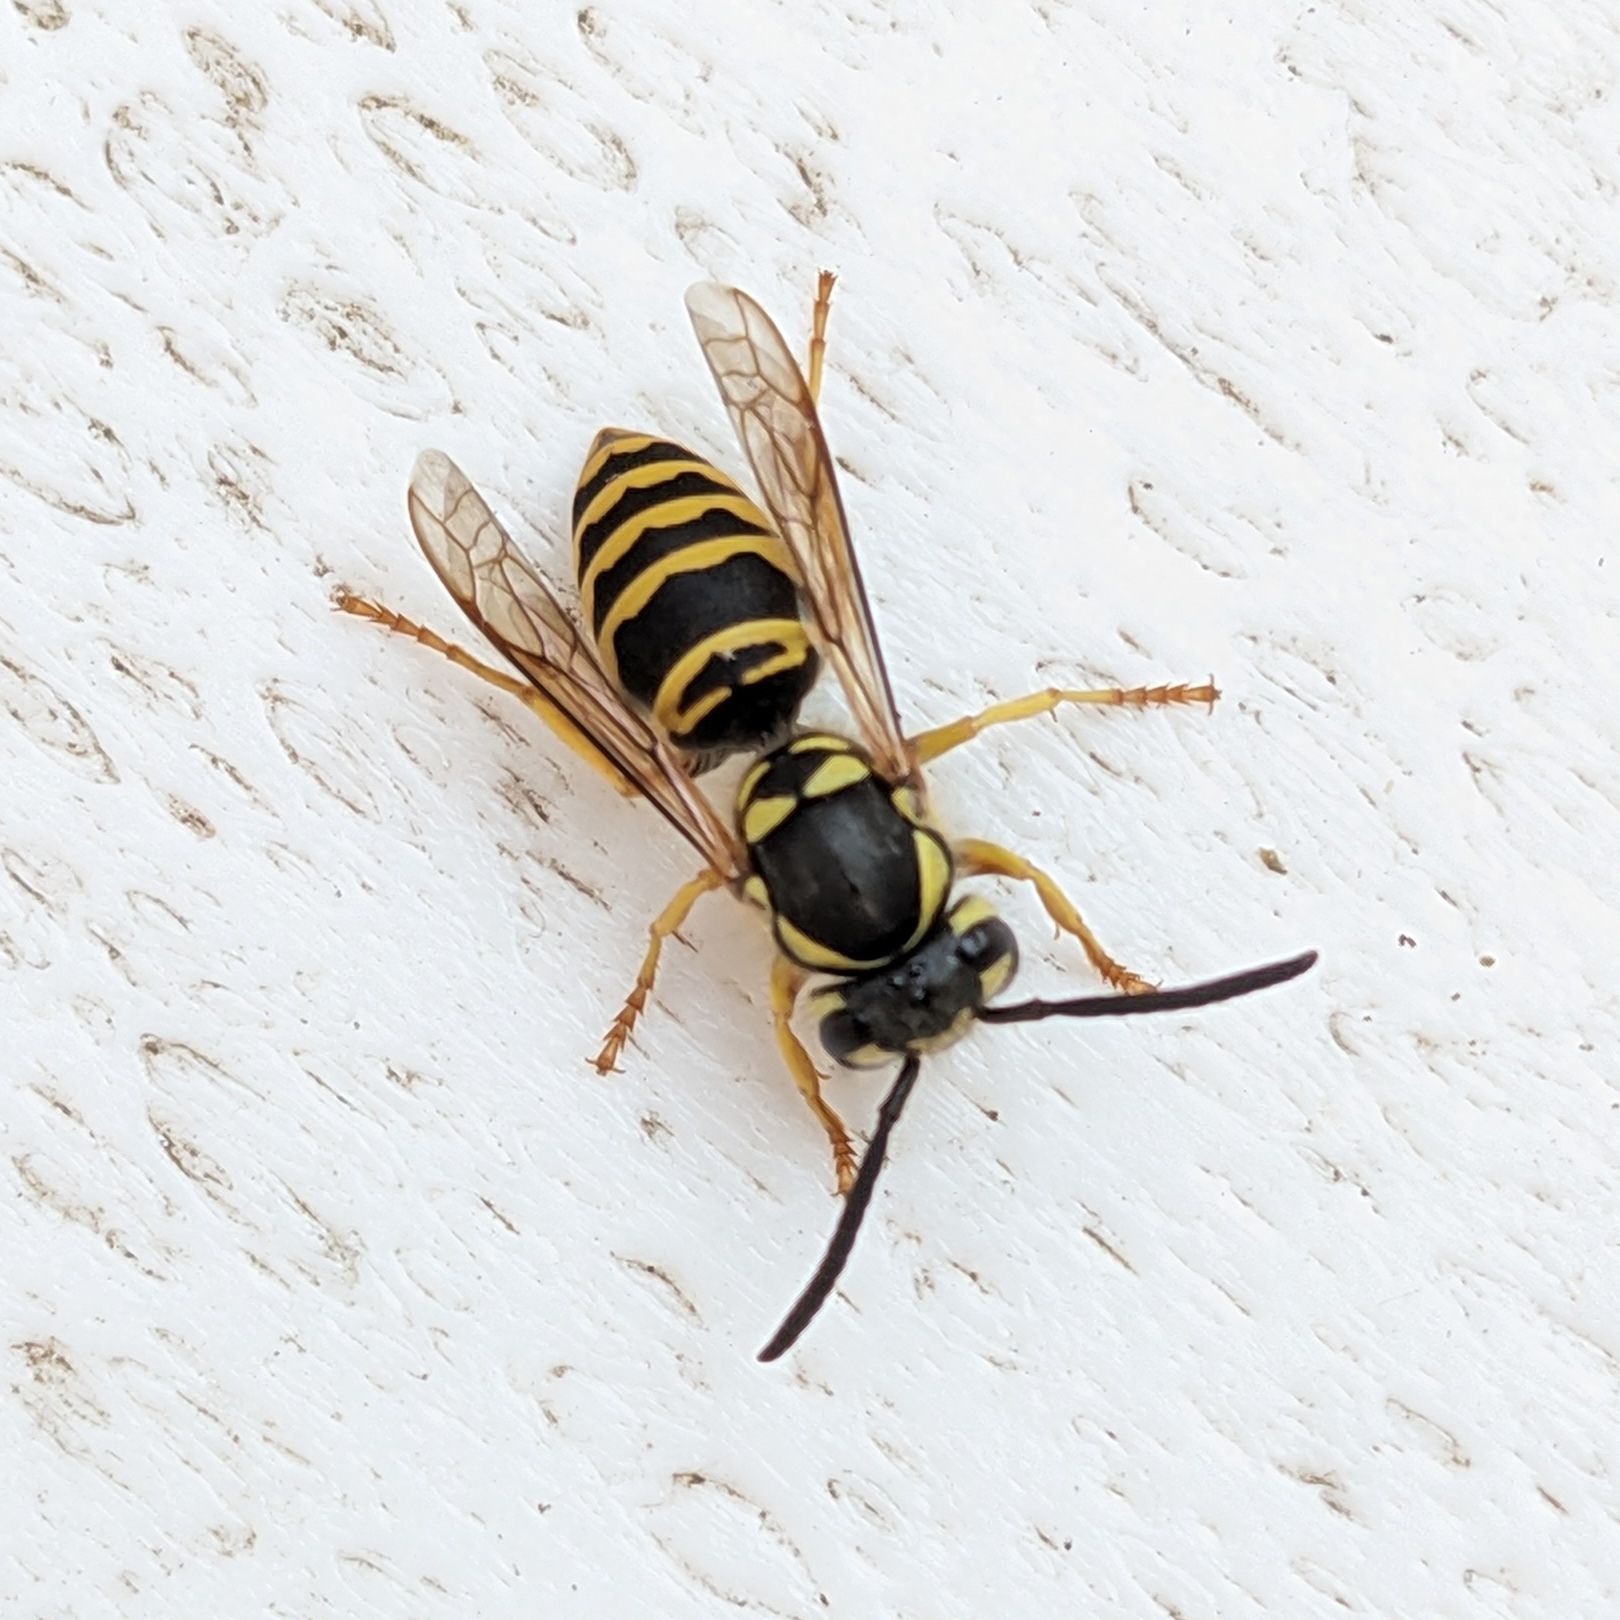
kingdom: Animalia
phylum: Arthropoda
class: Insecta
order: Hymenoptera
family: Vespidae
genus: Vespula
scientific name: Vespula maculifrons
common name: Eastern yellowjacket
